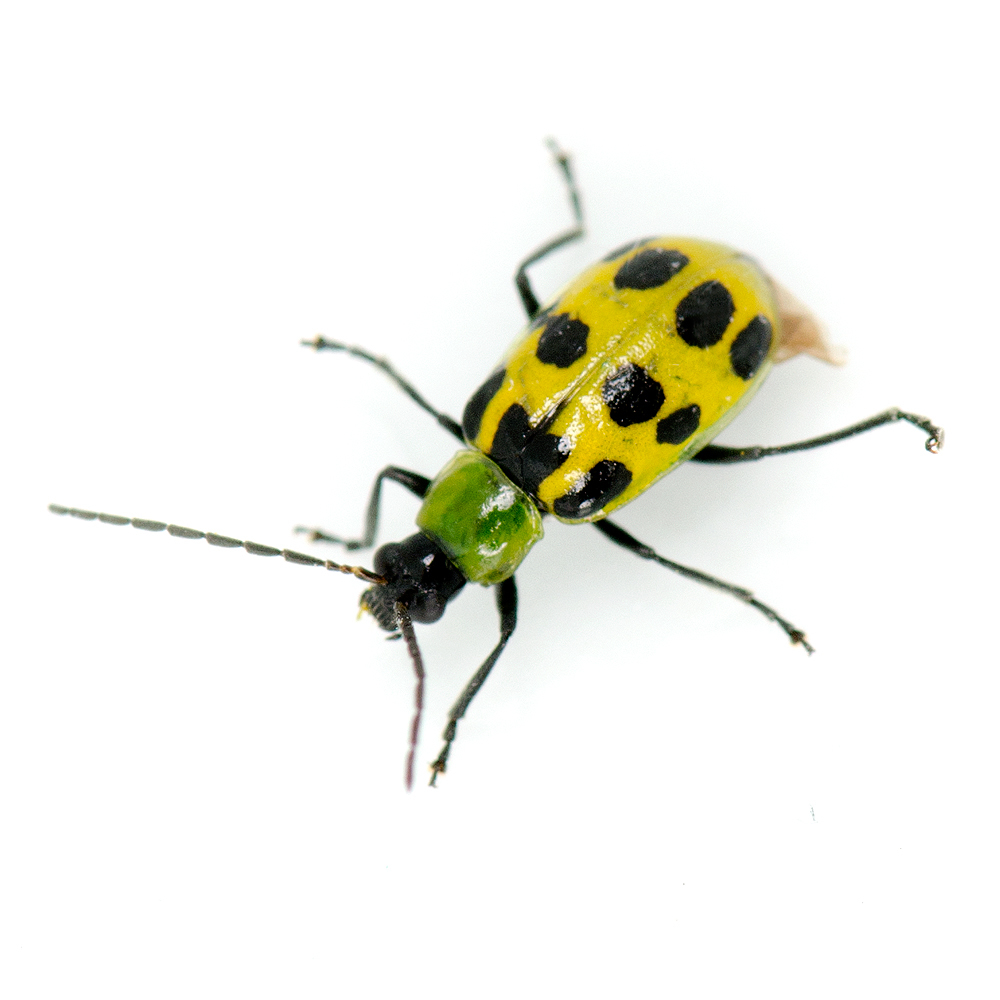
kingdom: Animalia
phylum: Arthropoda
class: Insecta
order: Coleoptera
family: Chrysomelidae
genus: Diabrotica
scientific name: Diabrotica undecimpunctata
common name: Spotted cucumber beetle
